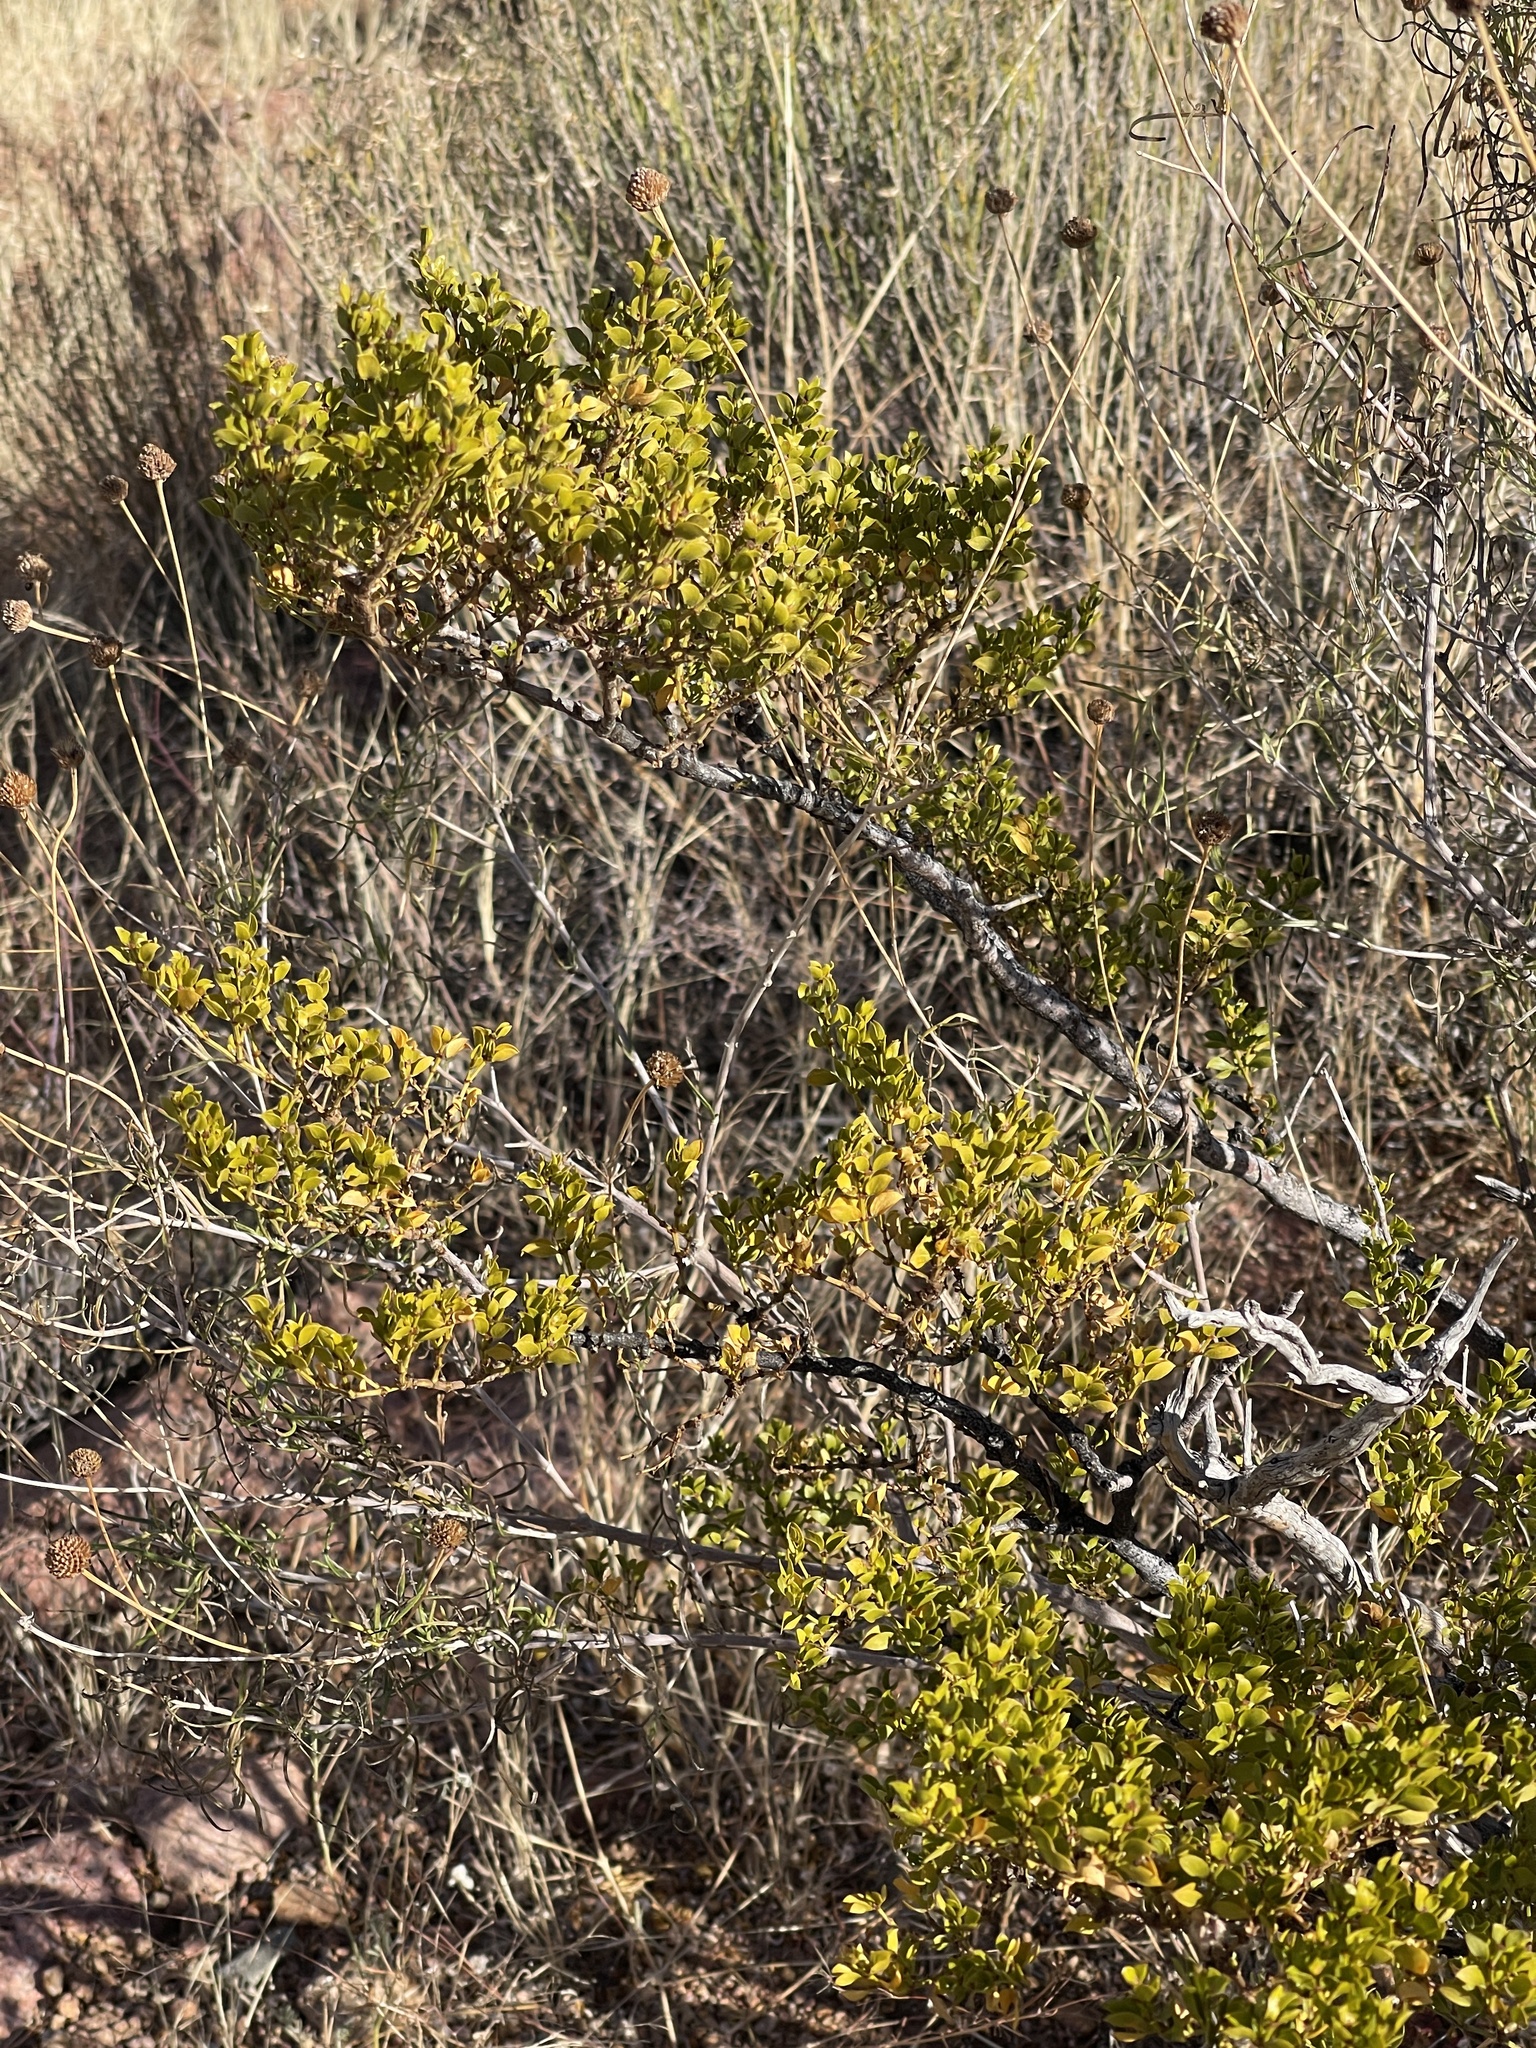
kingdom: Plantae
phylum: Tracheophyta
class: Magnoliopsida
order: Zygophyllales
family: Zygophyllaceae
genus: Larrea
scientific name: Larrea tridentata
